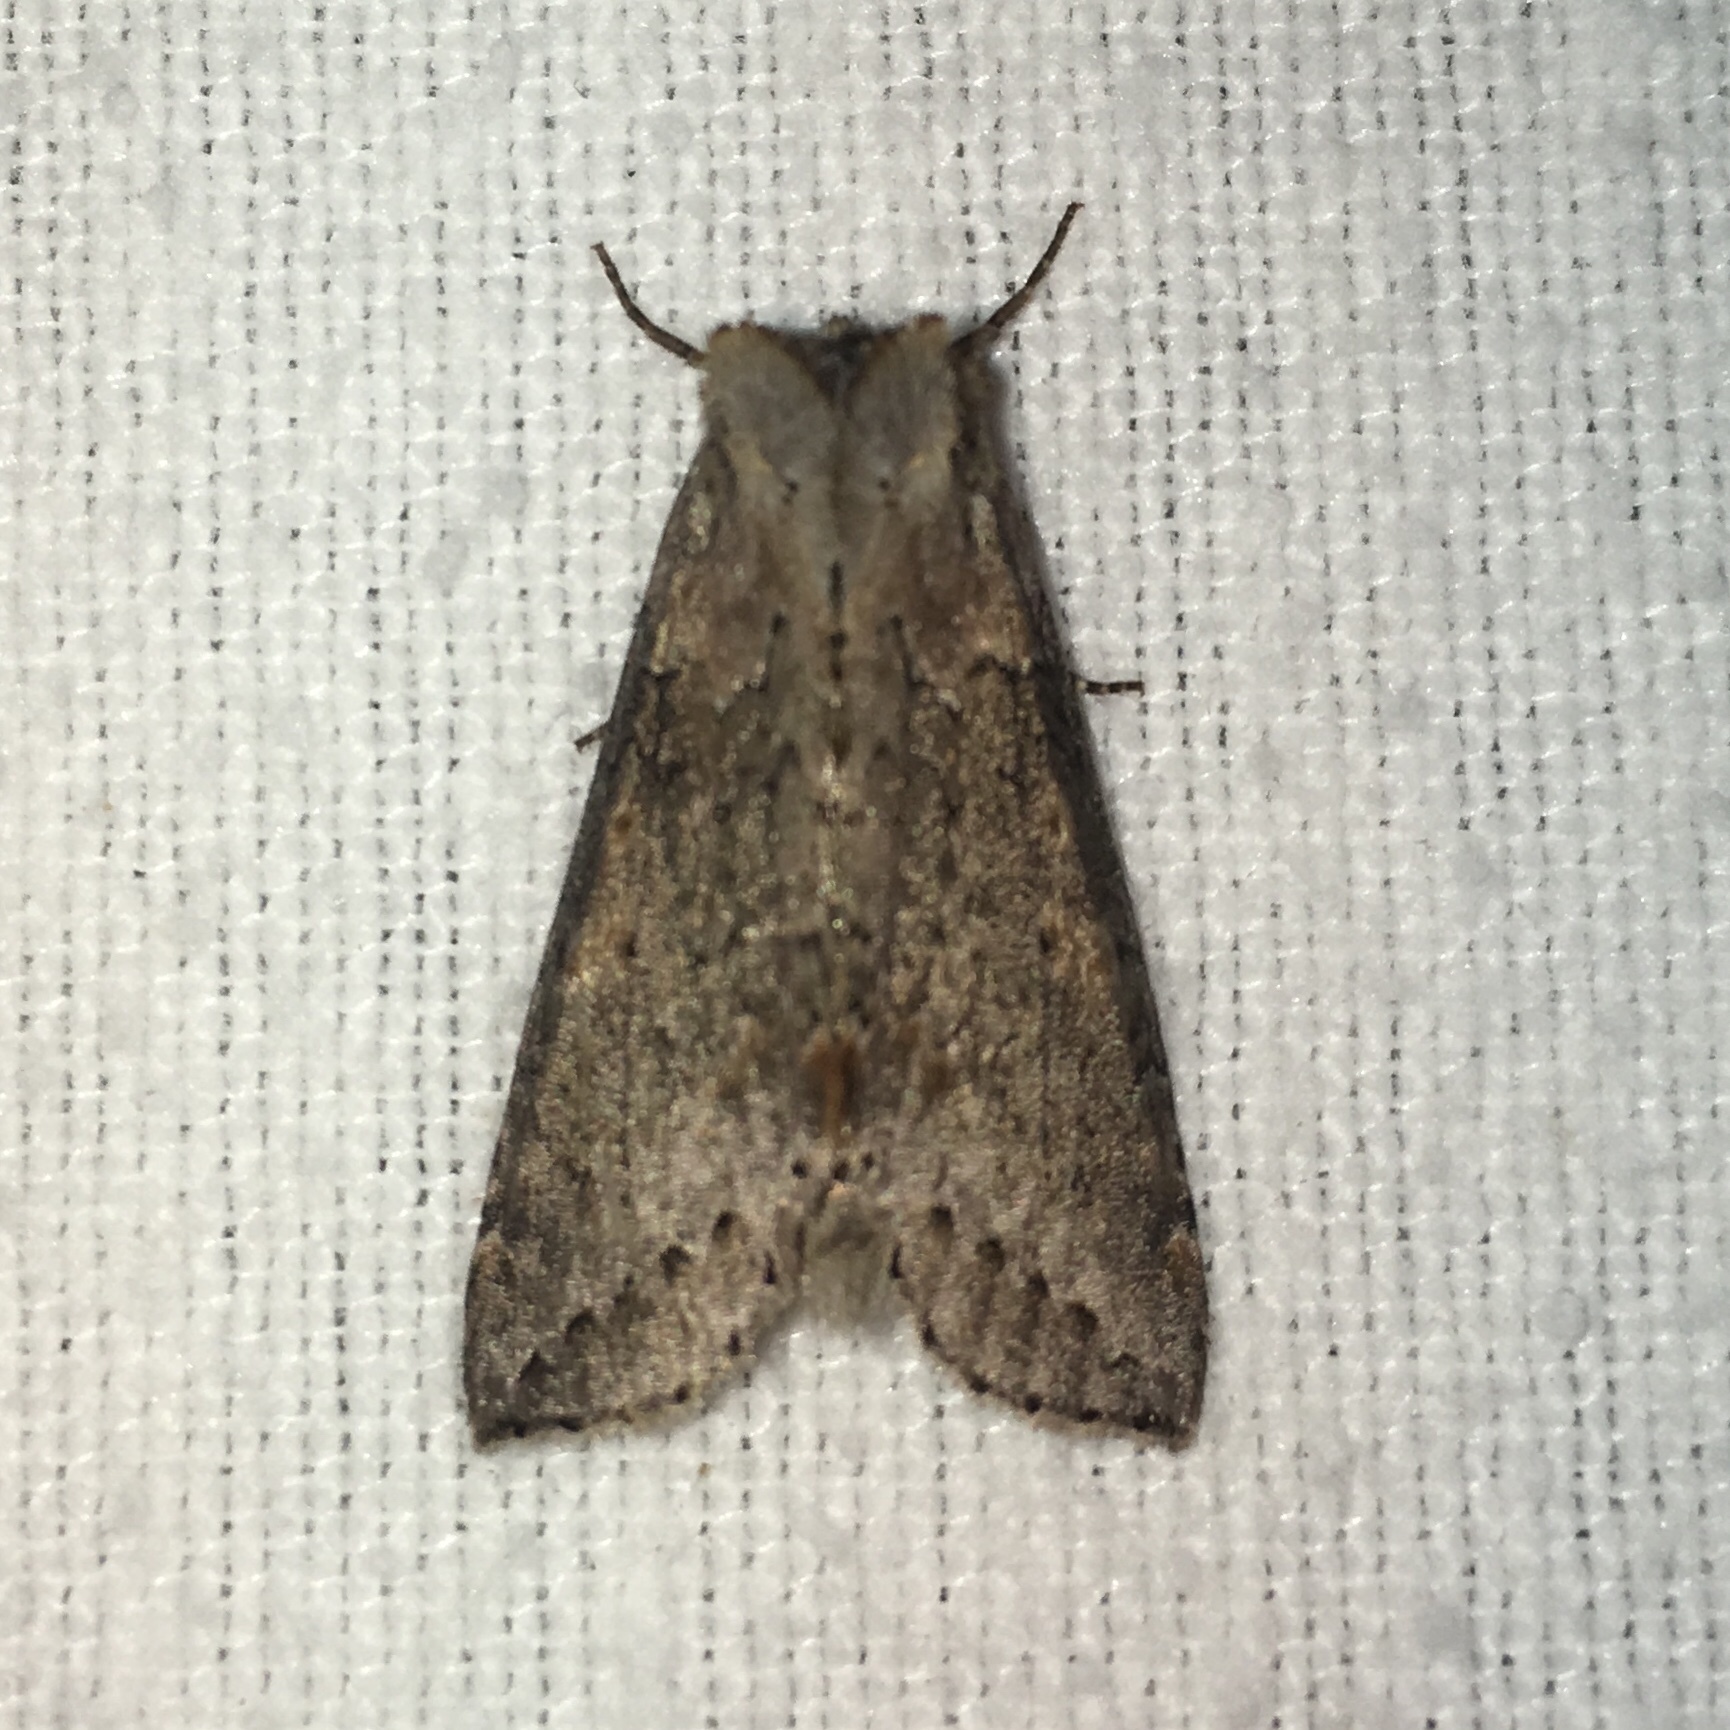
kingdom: Animalia
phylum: Arthropoda
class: Insecta
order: Lepidoptera
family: Drepanidae
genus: Pseudothyatira
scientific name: Pseudothyatira cymatophoroides
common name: Tufted thyatirid moth
